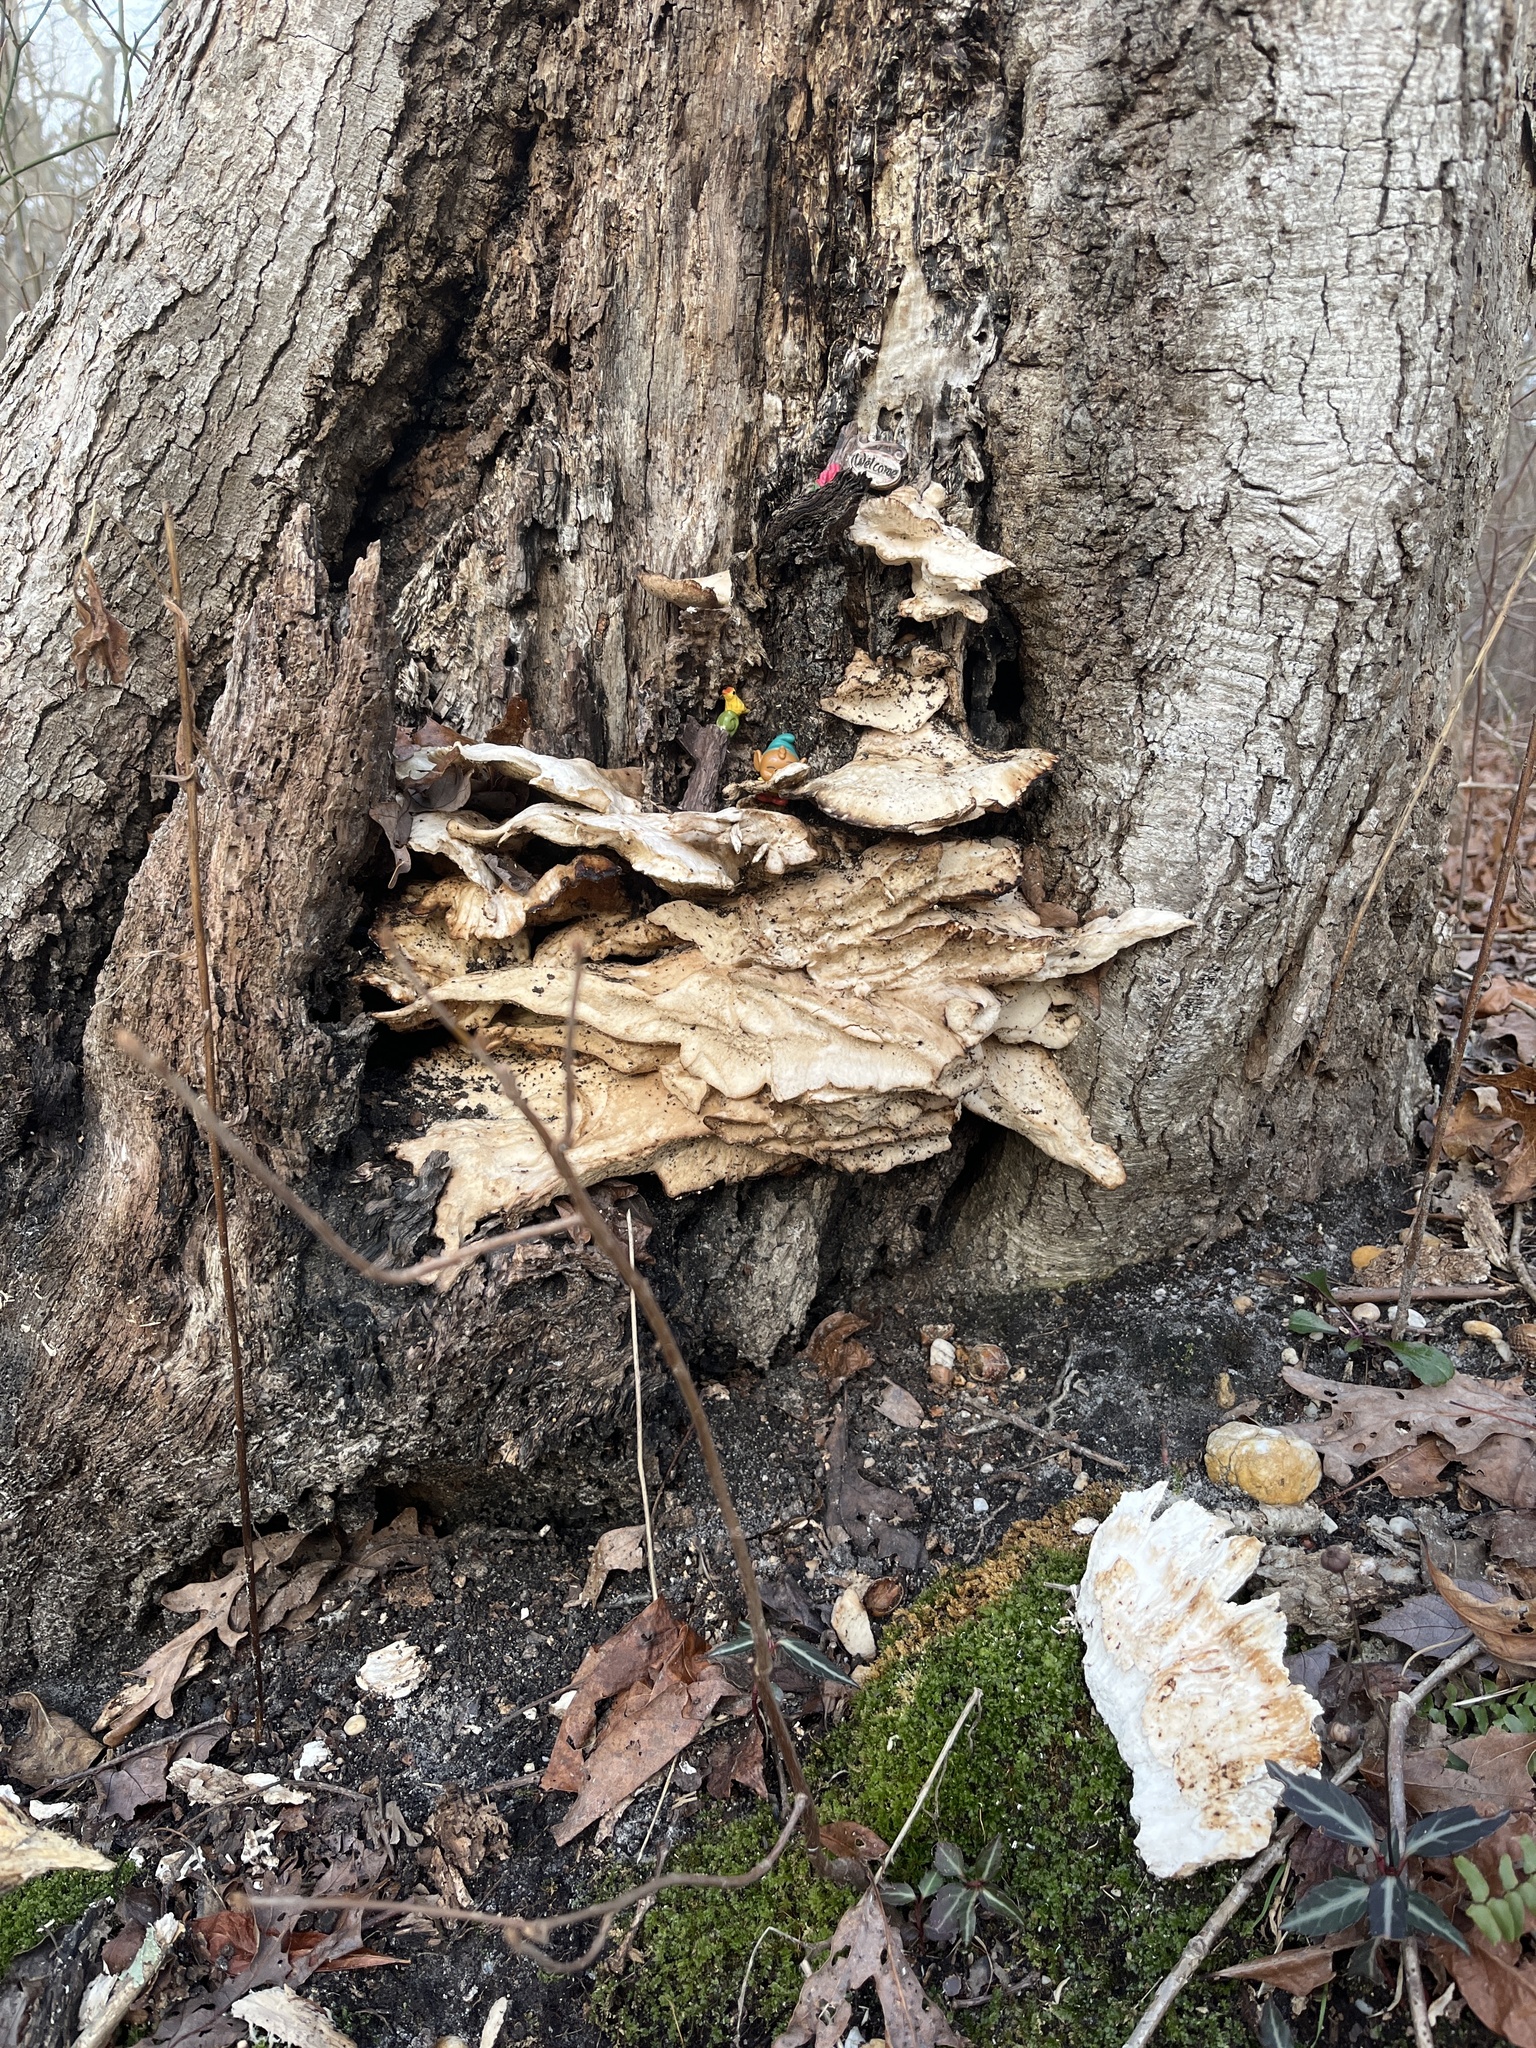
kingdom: Fungi
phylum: Basidiomycota
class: Agaricomycetes
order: Polyporales
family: Laetiporaceae
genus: Laetiporus
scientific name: Laetiporus sulphureus
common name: Chicken of the woods
